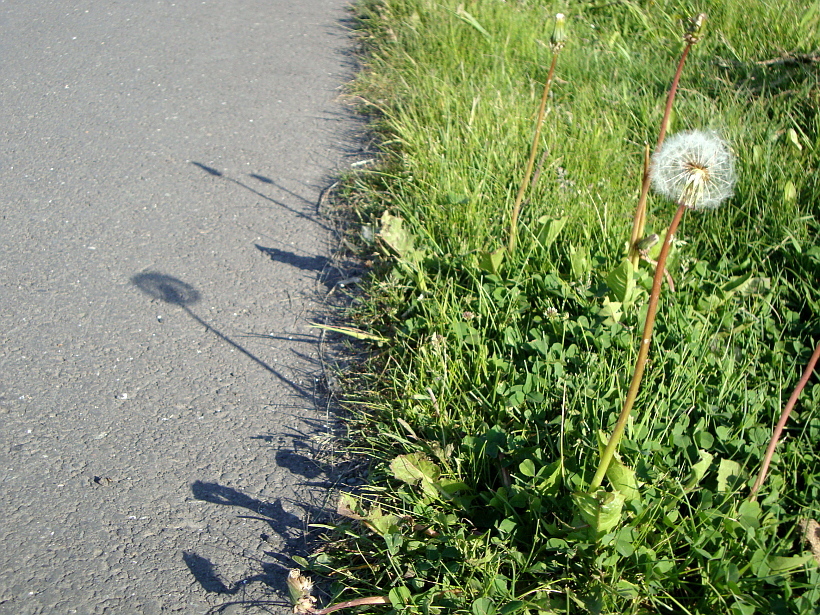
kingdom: Plantae
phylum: Tracheophyta
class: Magnoliopsida
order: Asterales
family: Asteraceae
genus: Taraxacum
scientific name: Taraxacum officinale
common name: Common dandelion
